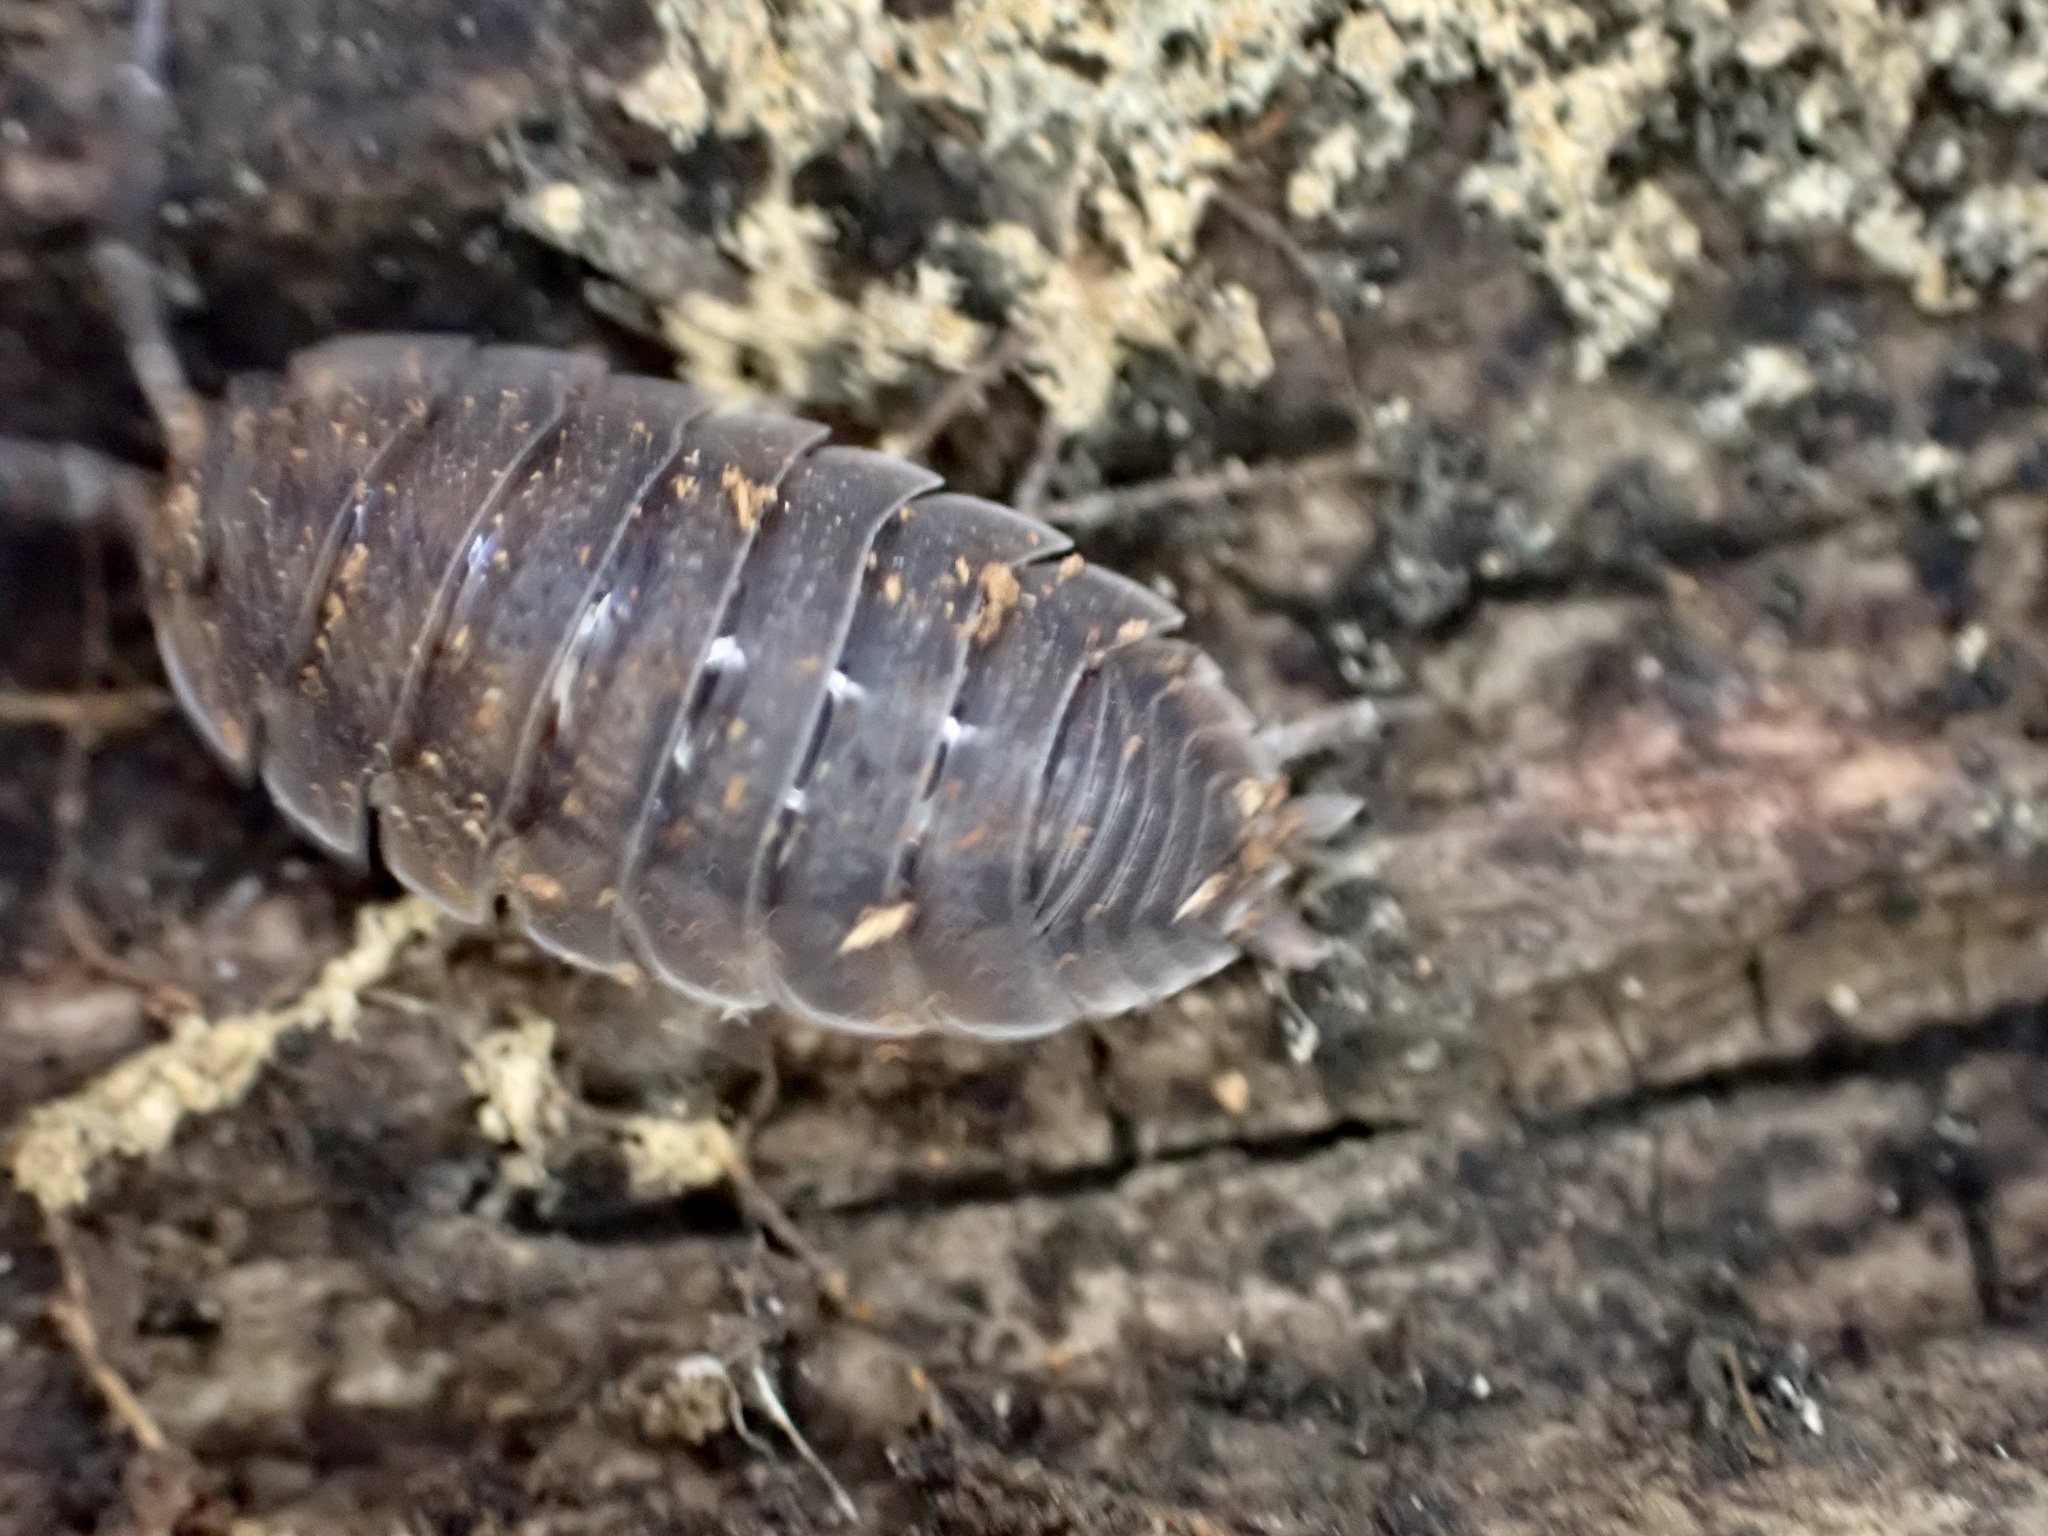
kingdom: Animalia
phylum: Arthropoda
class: Malacostraca
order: Isopoda
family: Porcellionidae
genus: Porcellio
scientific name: Porcellio scaber
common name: Common rough woodlouse
